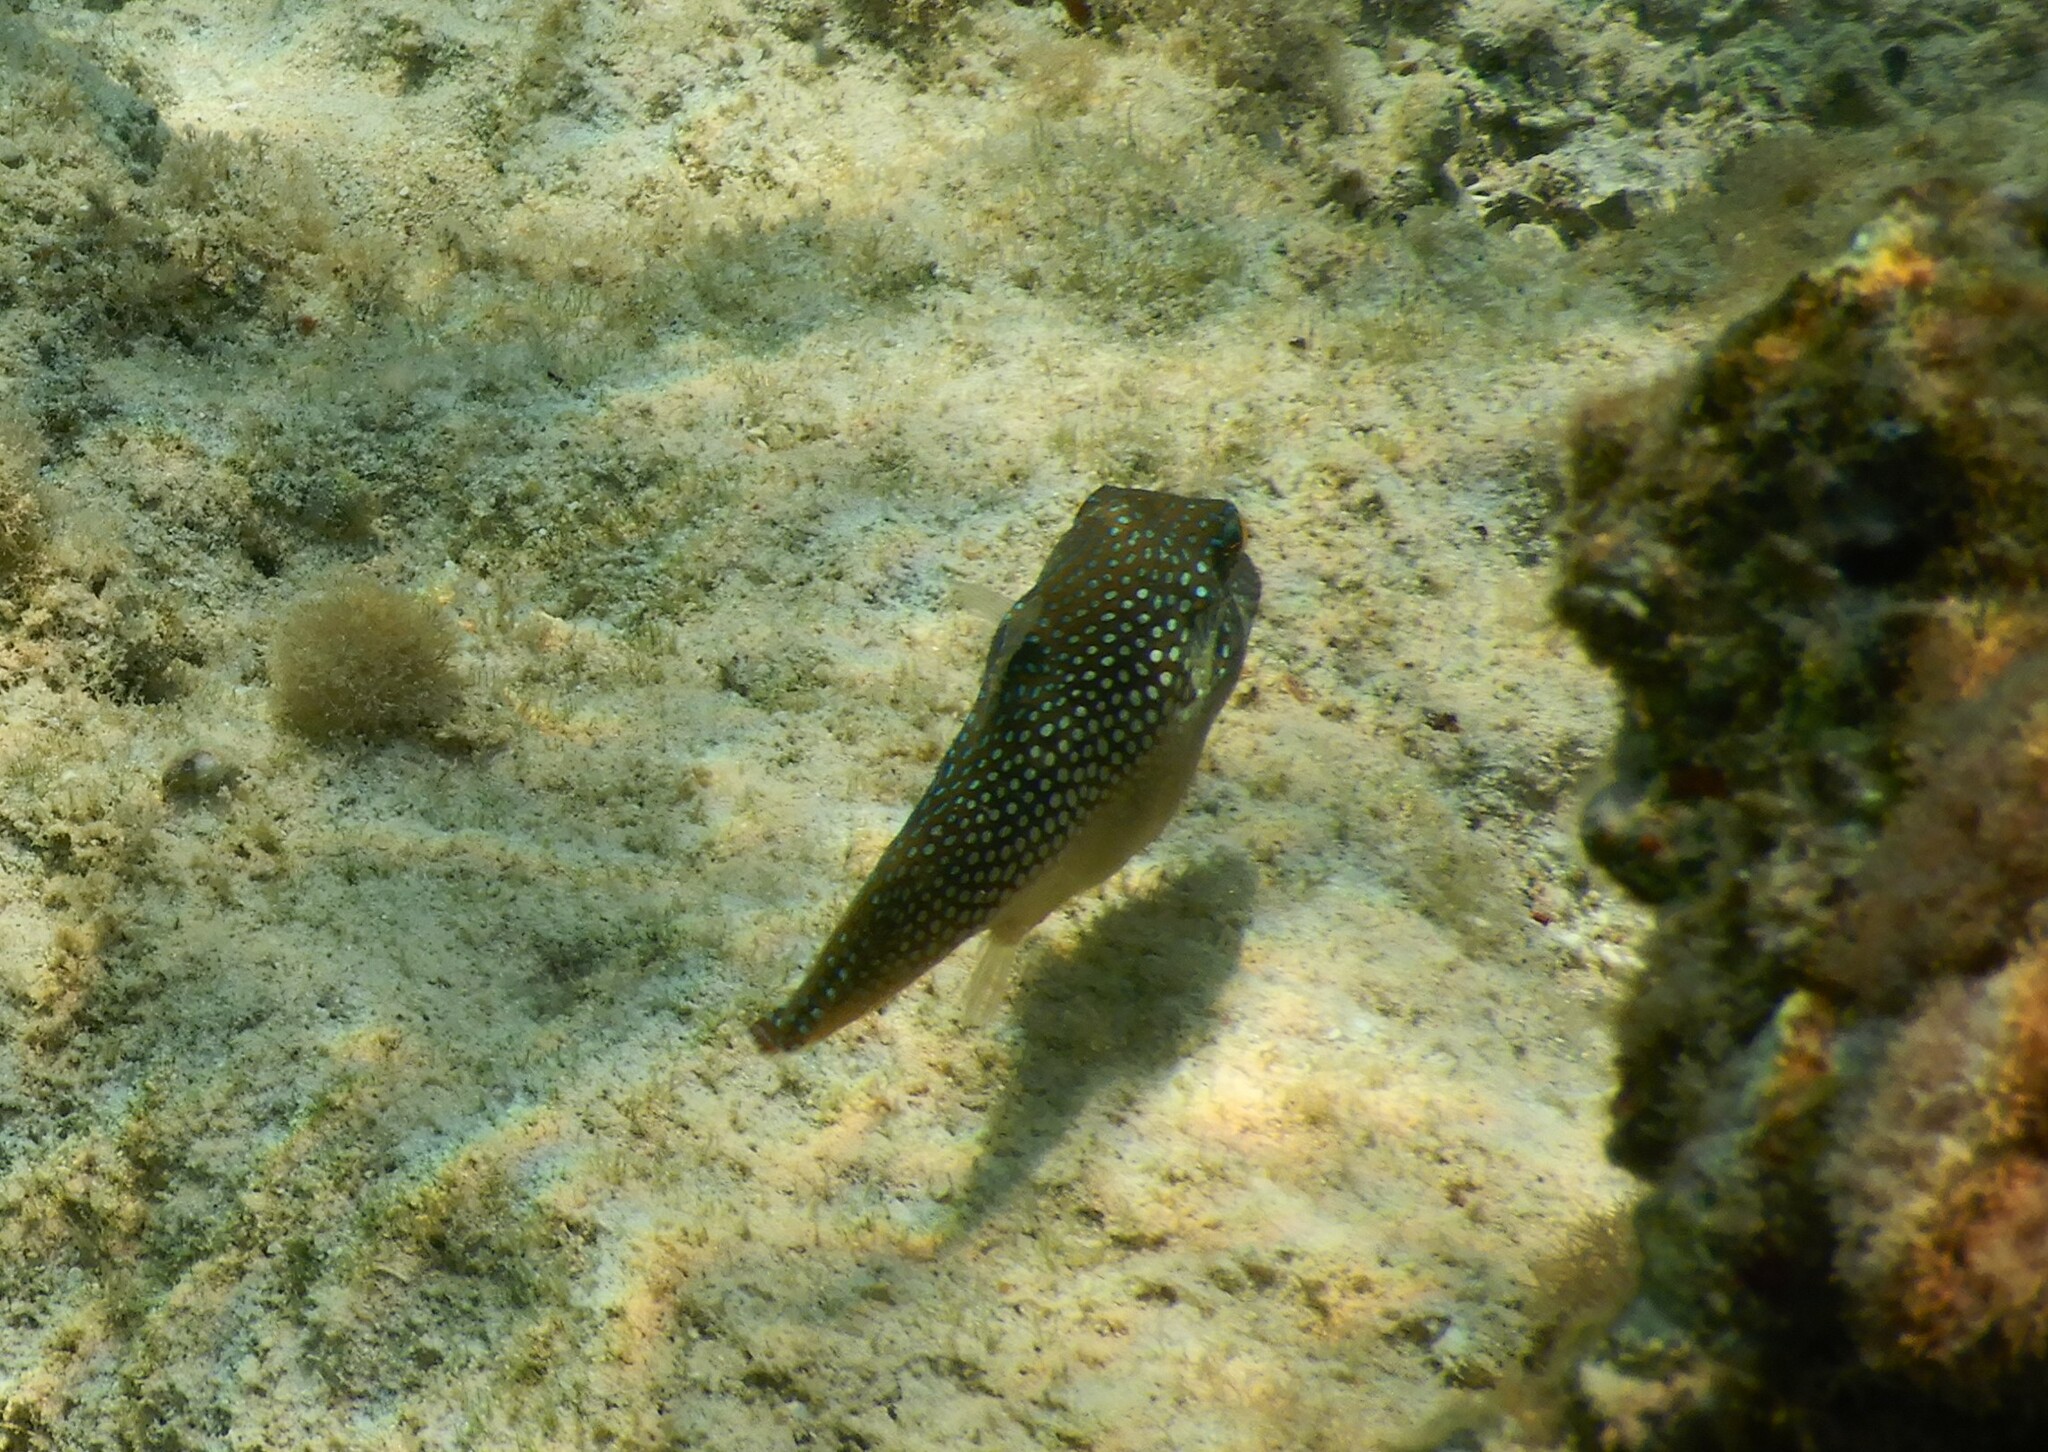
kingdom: Animalia
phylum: Chordata
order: Tetraodontiformes
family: Tetraodontidae
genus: Canthigaster
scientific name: Canthigaster margaritata
